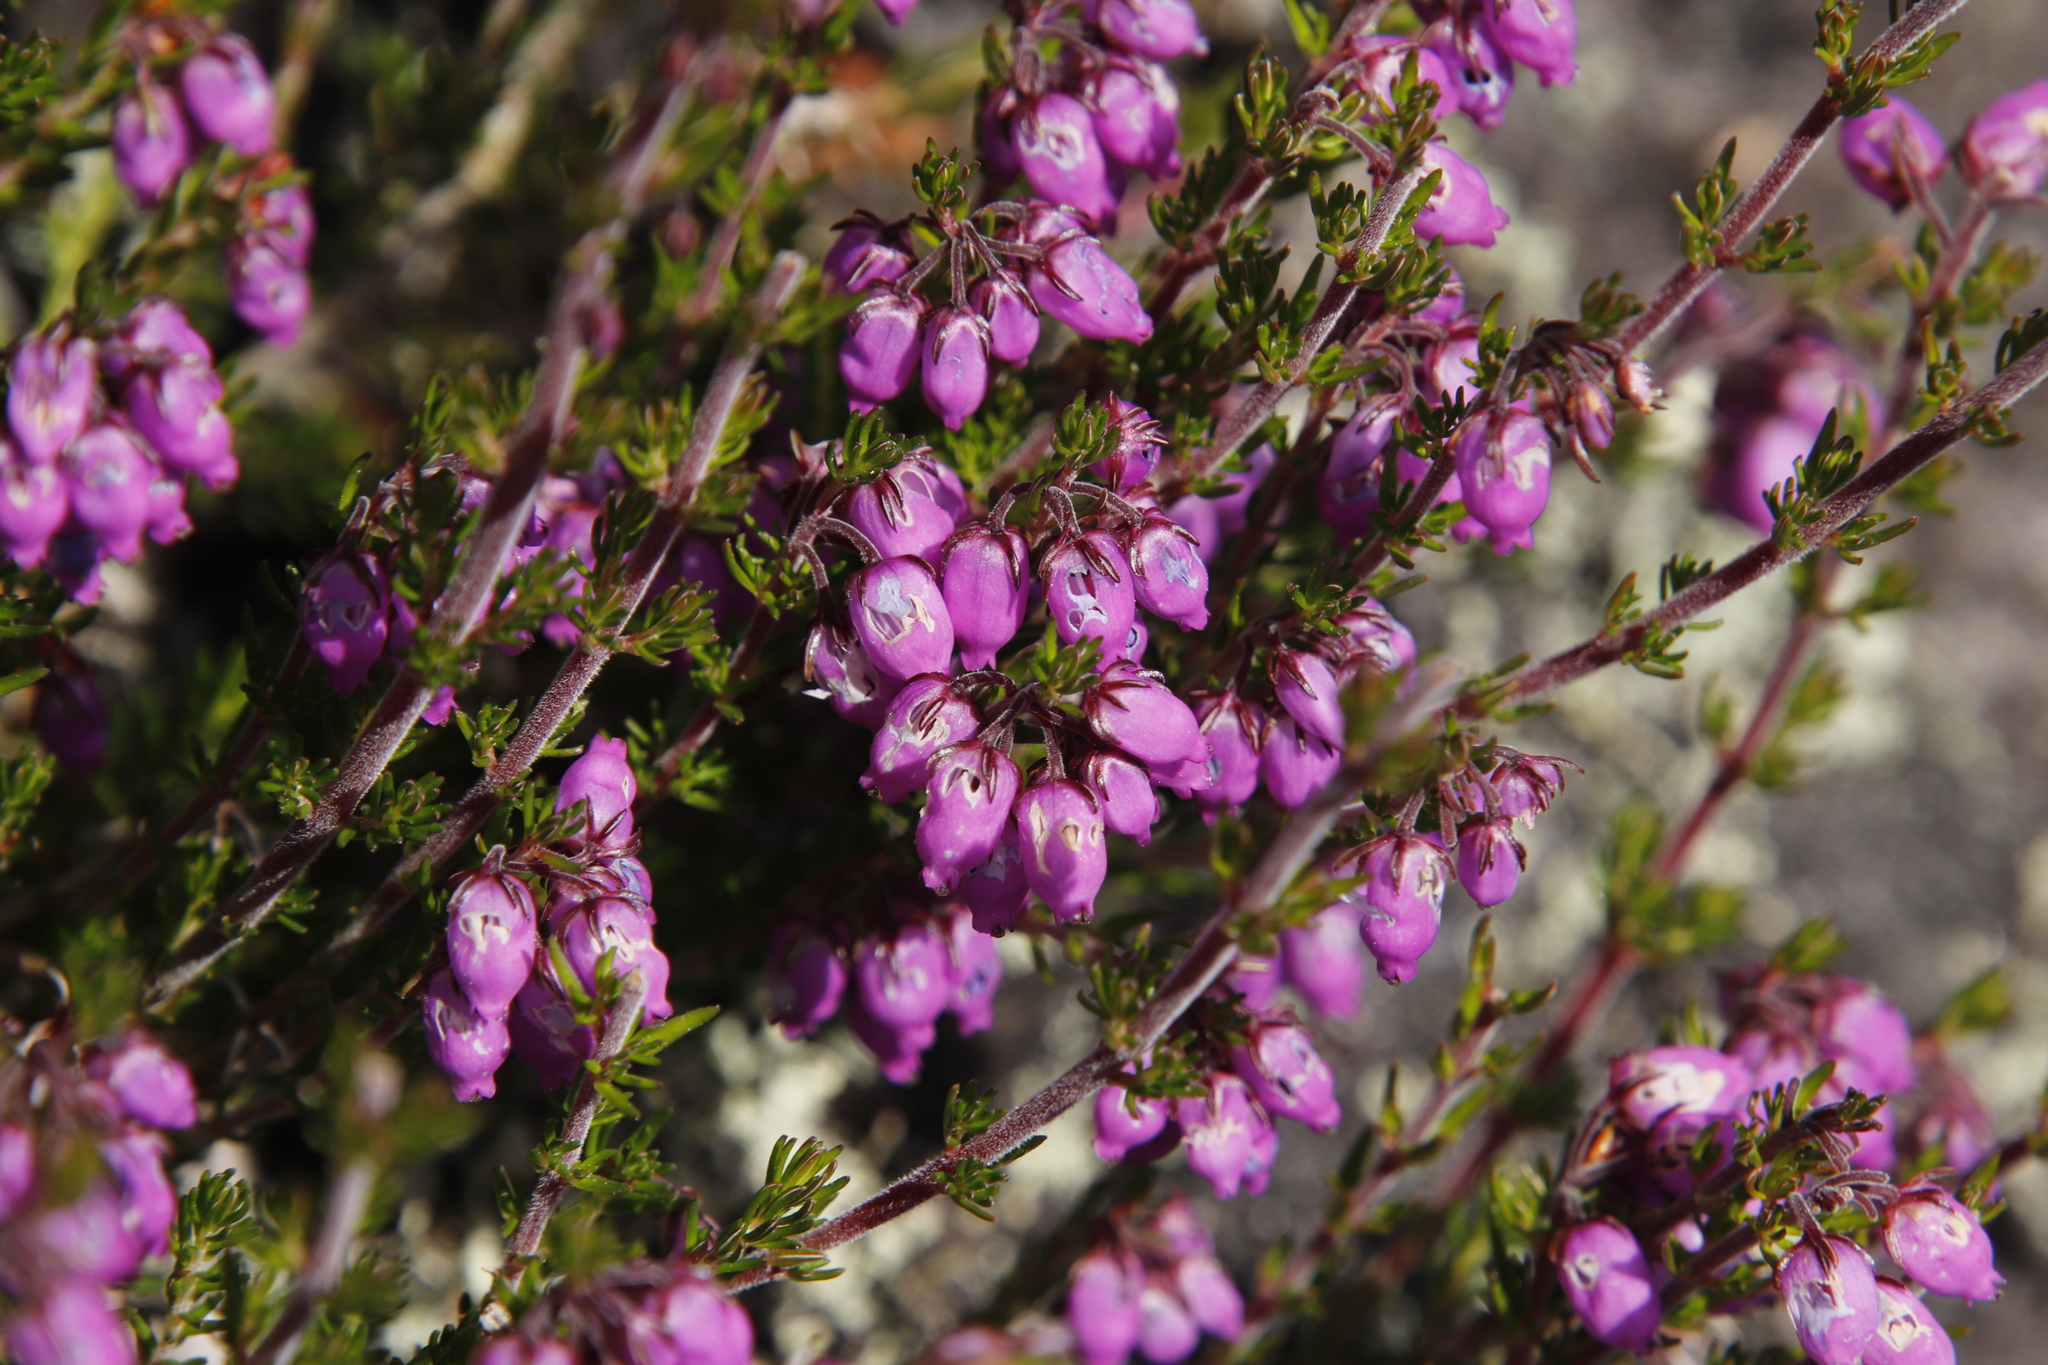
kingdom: Plantae
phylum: Tracheophyta
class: Magnoliopsida
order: Ericales
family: Ericaceae
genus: Erica
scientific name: Erica cinerea
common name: Bell heather
